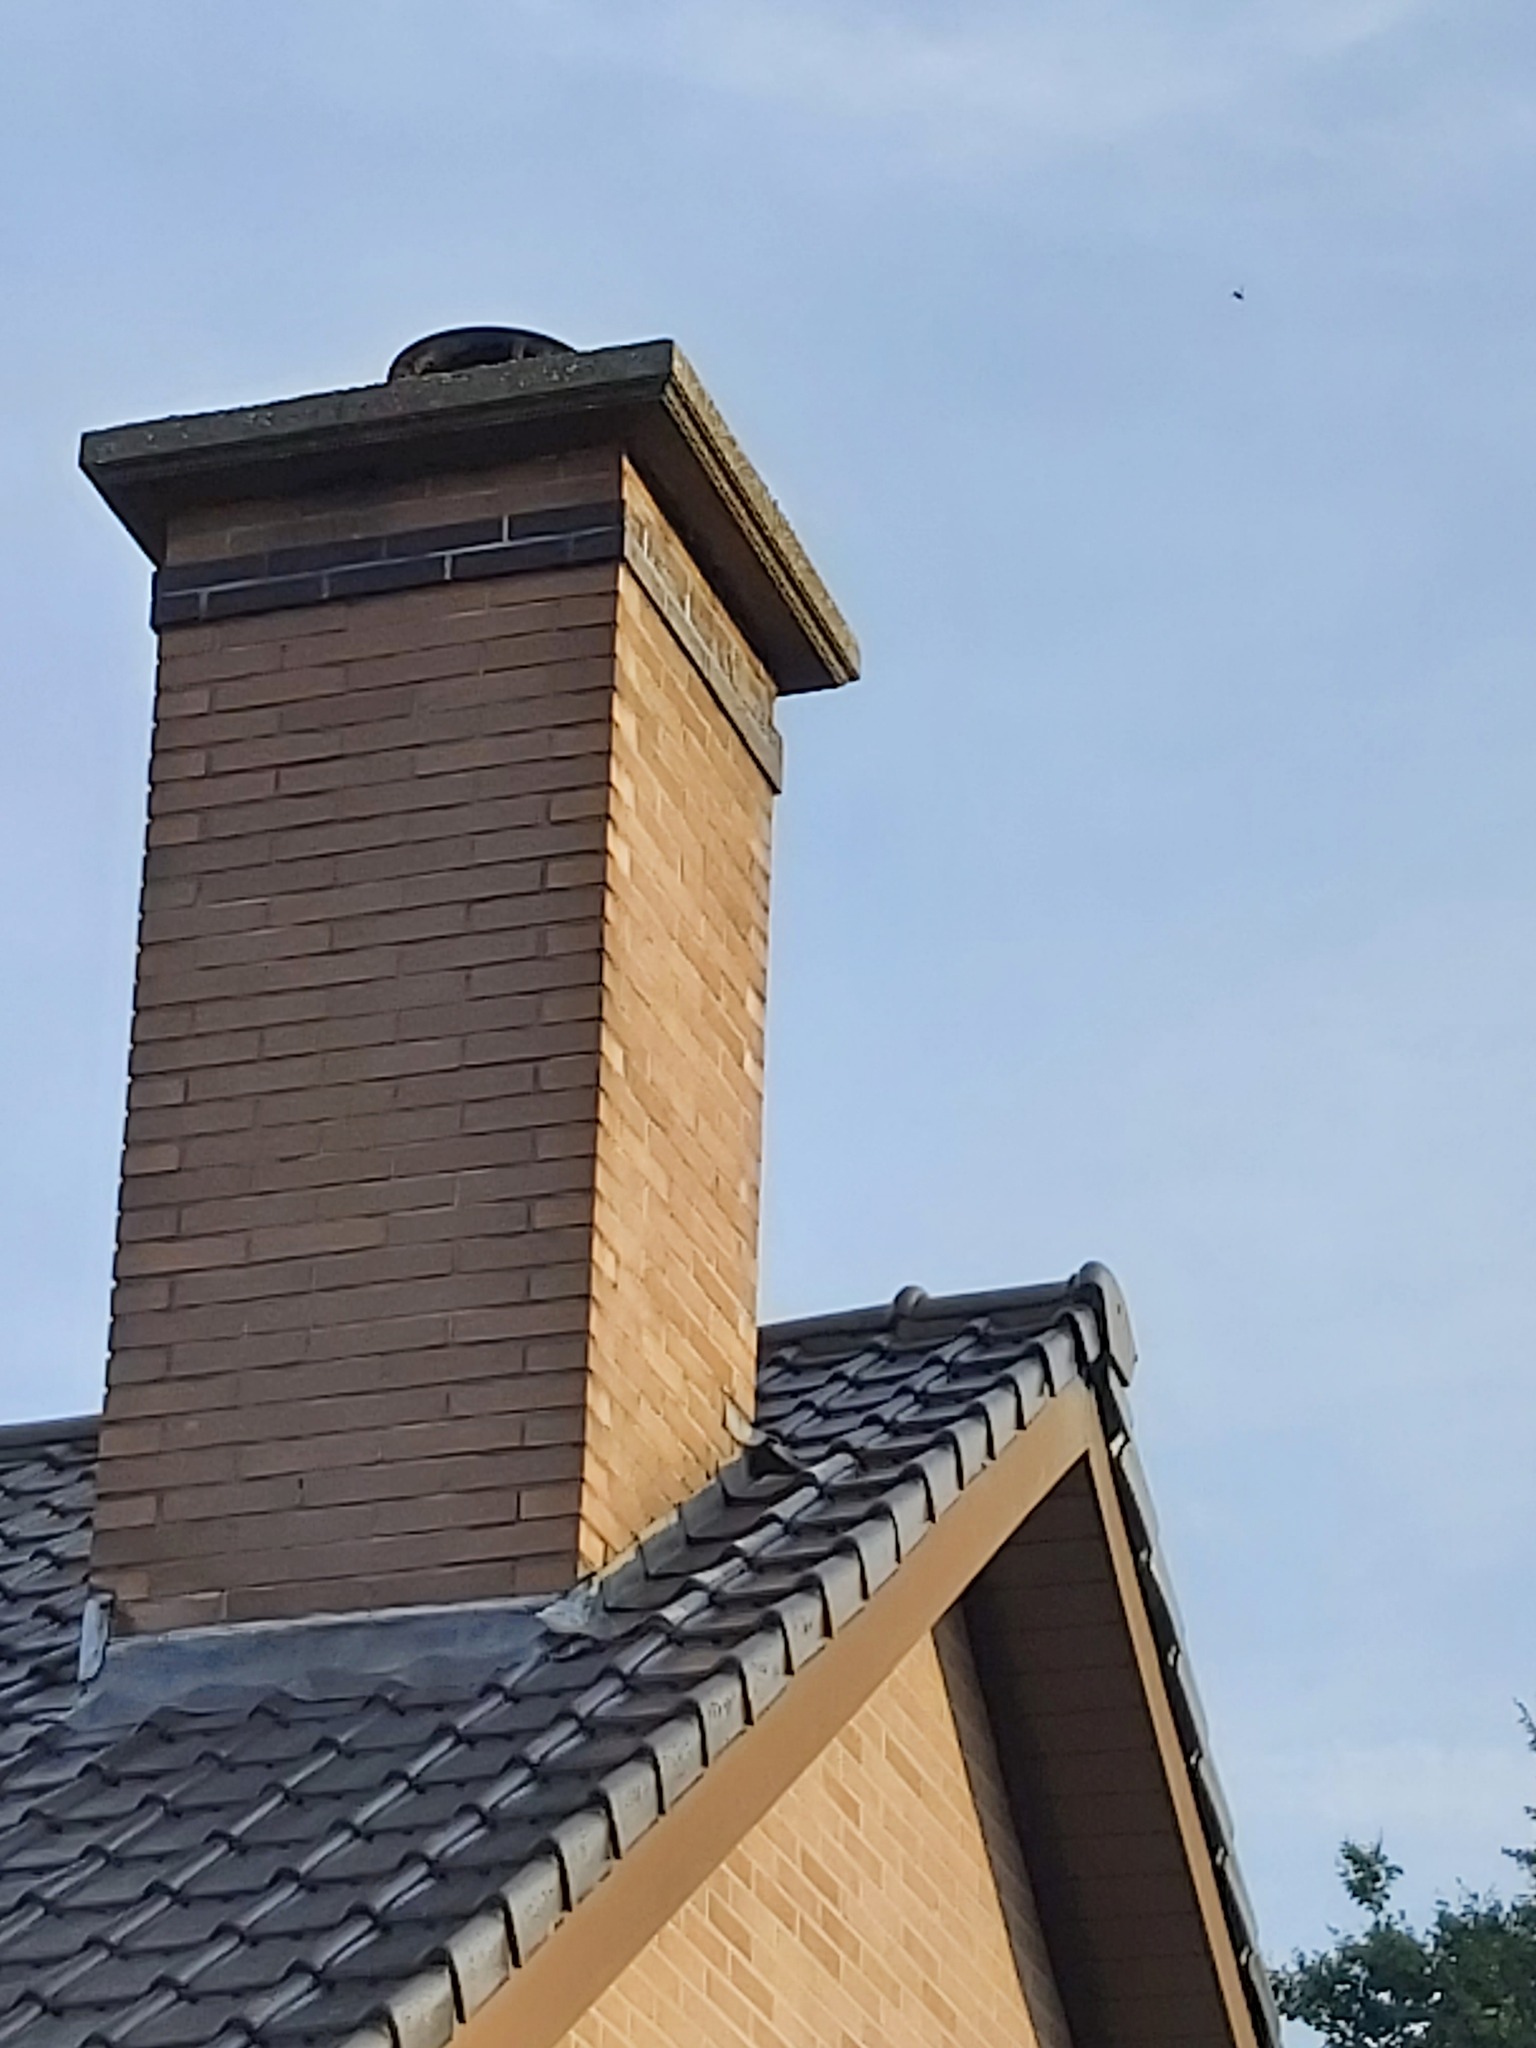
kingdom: Animalia
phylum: Arthropoda
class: Insecta
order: Hymenoptera
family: Vespidae
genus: Vespa
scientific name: Vespa crabro
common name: Hornet
